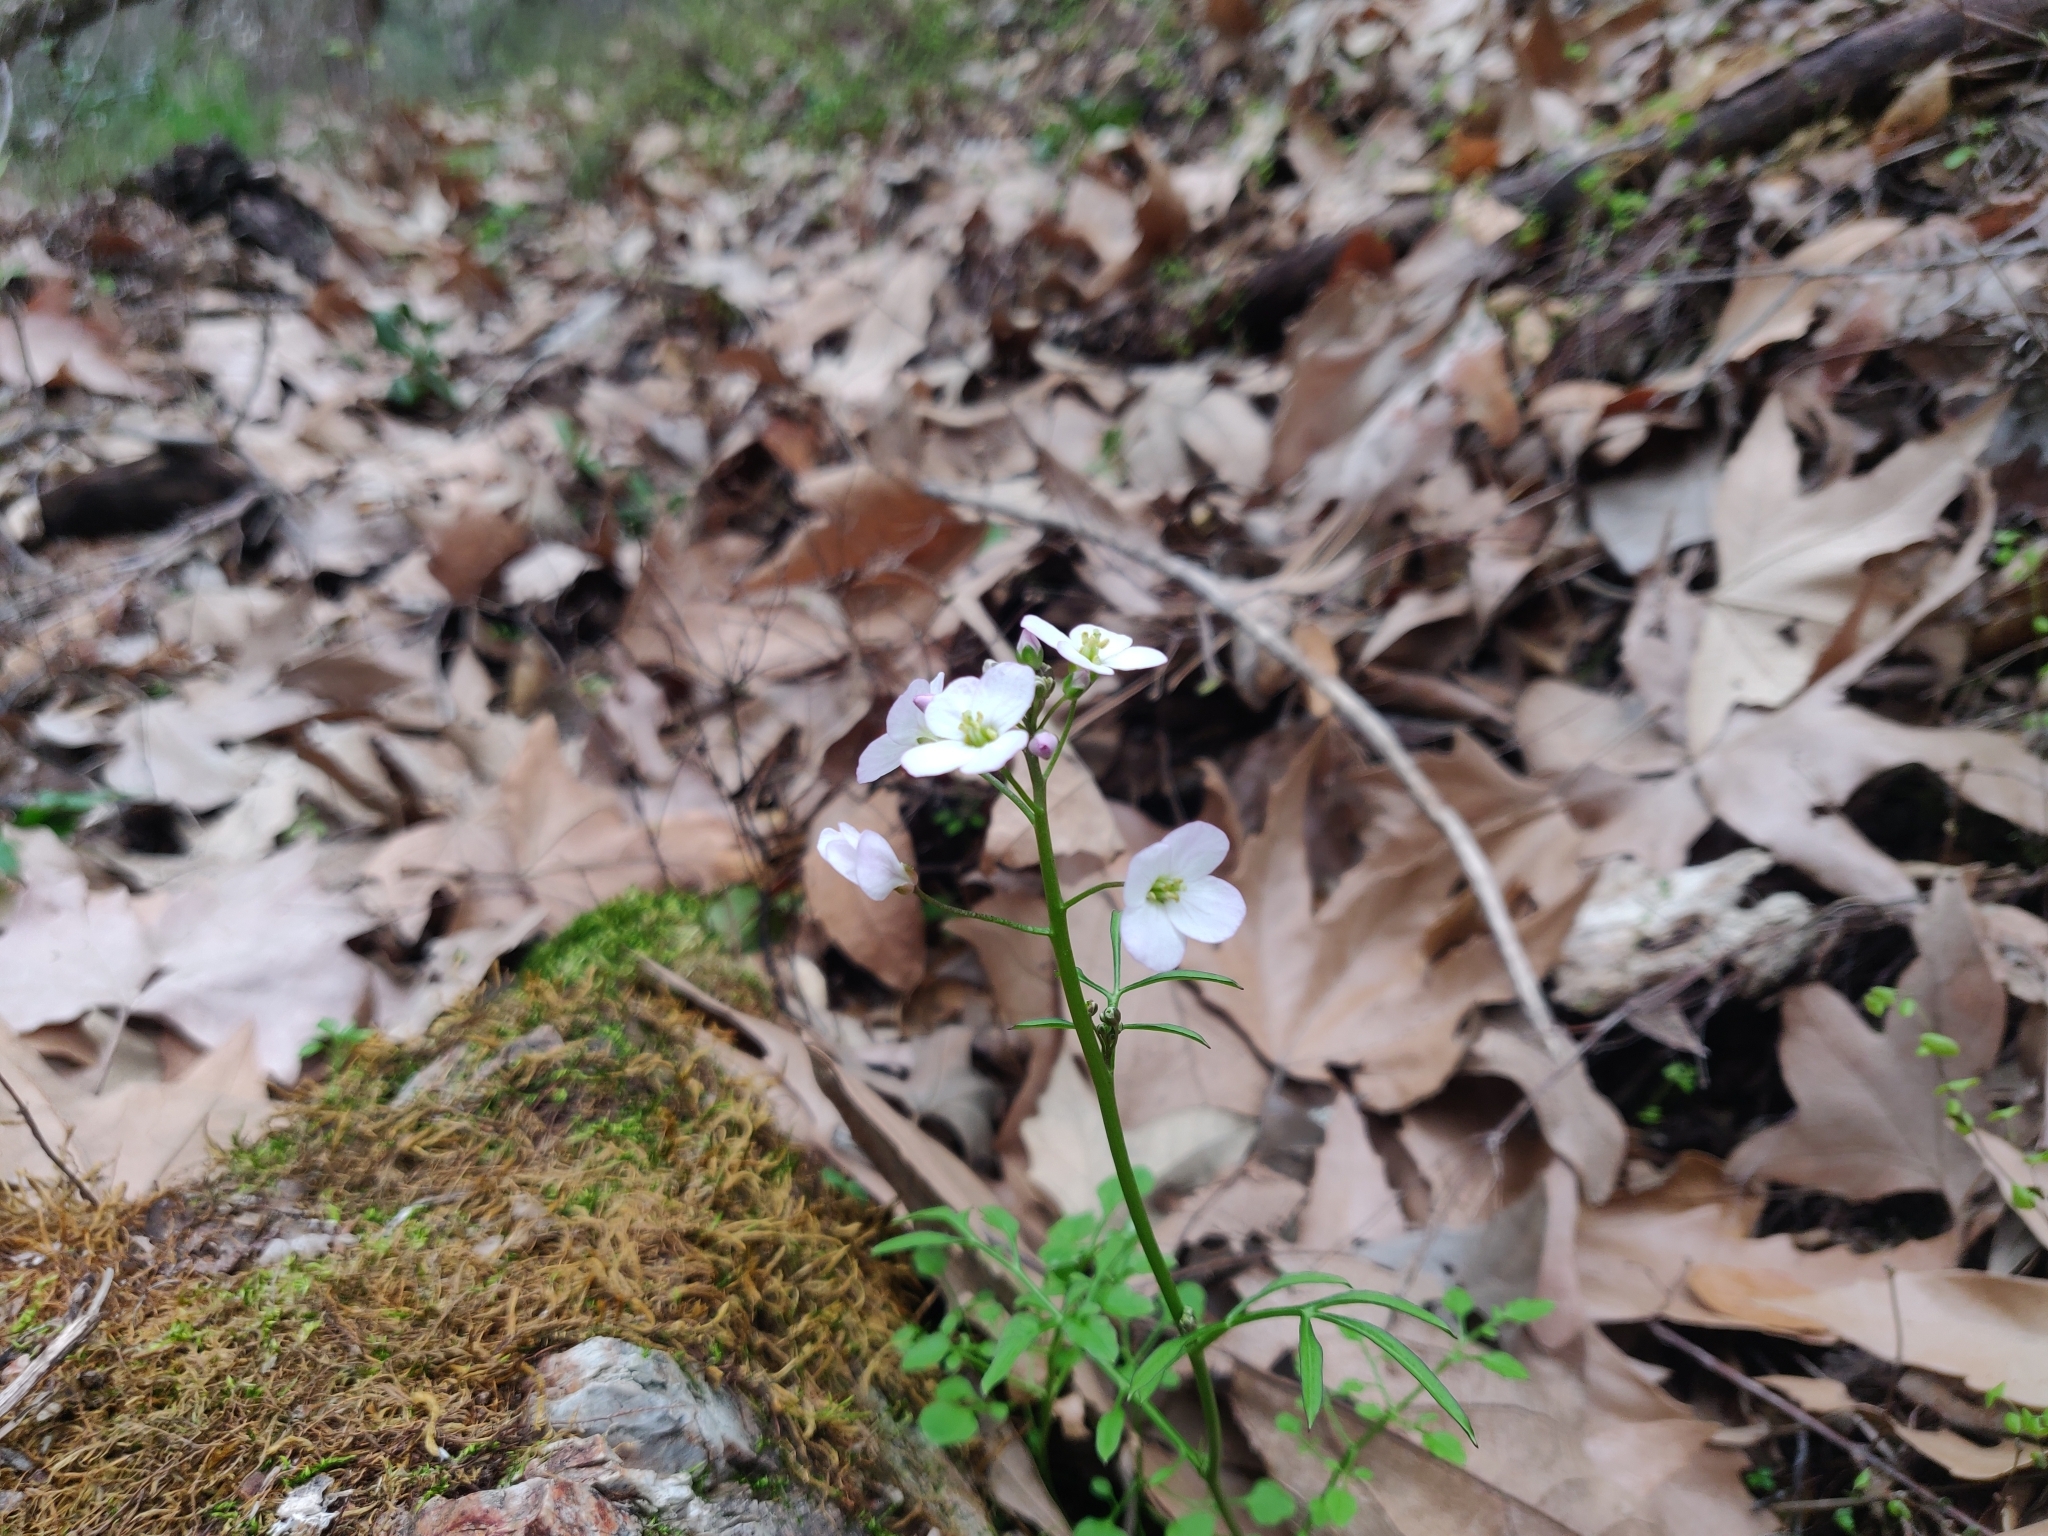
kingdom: Plantae
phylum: Tracheophyta
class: Magnoliopsida
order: Brassicales
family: Brassicaceae
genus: Cardamine
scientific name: Cardamine californica
